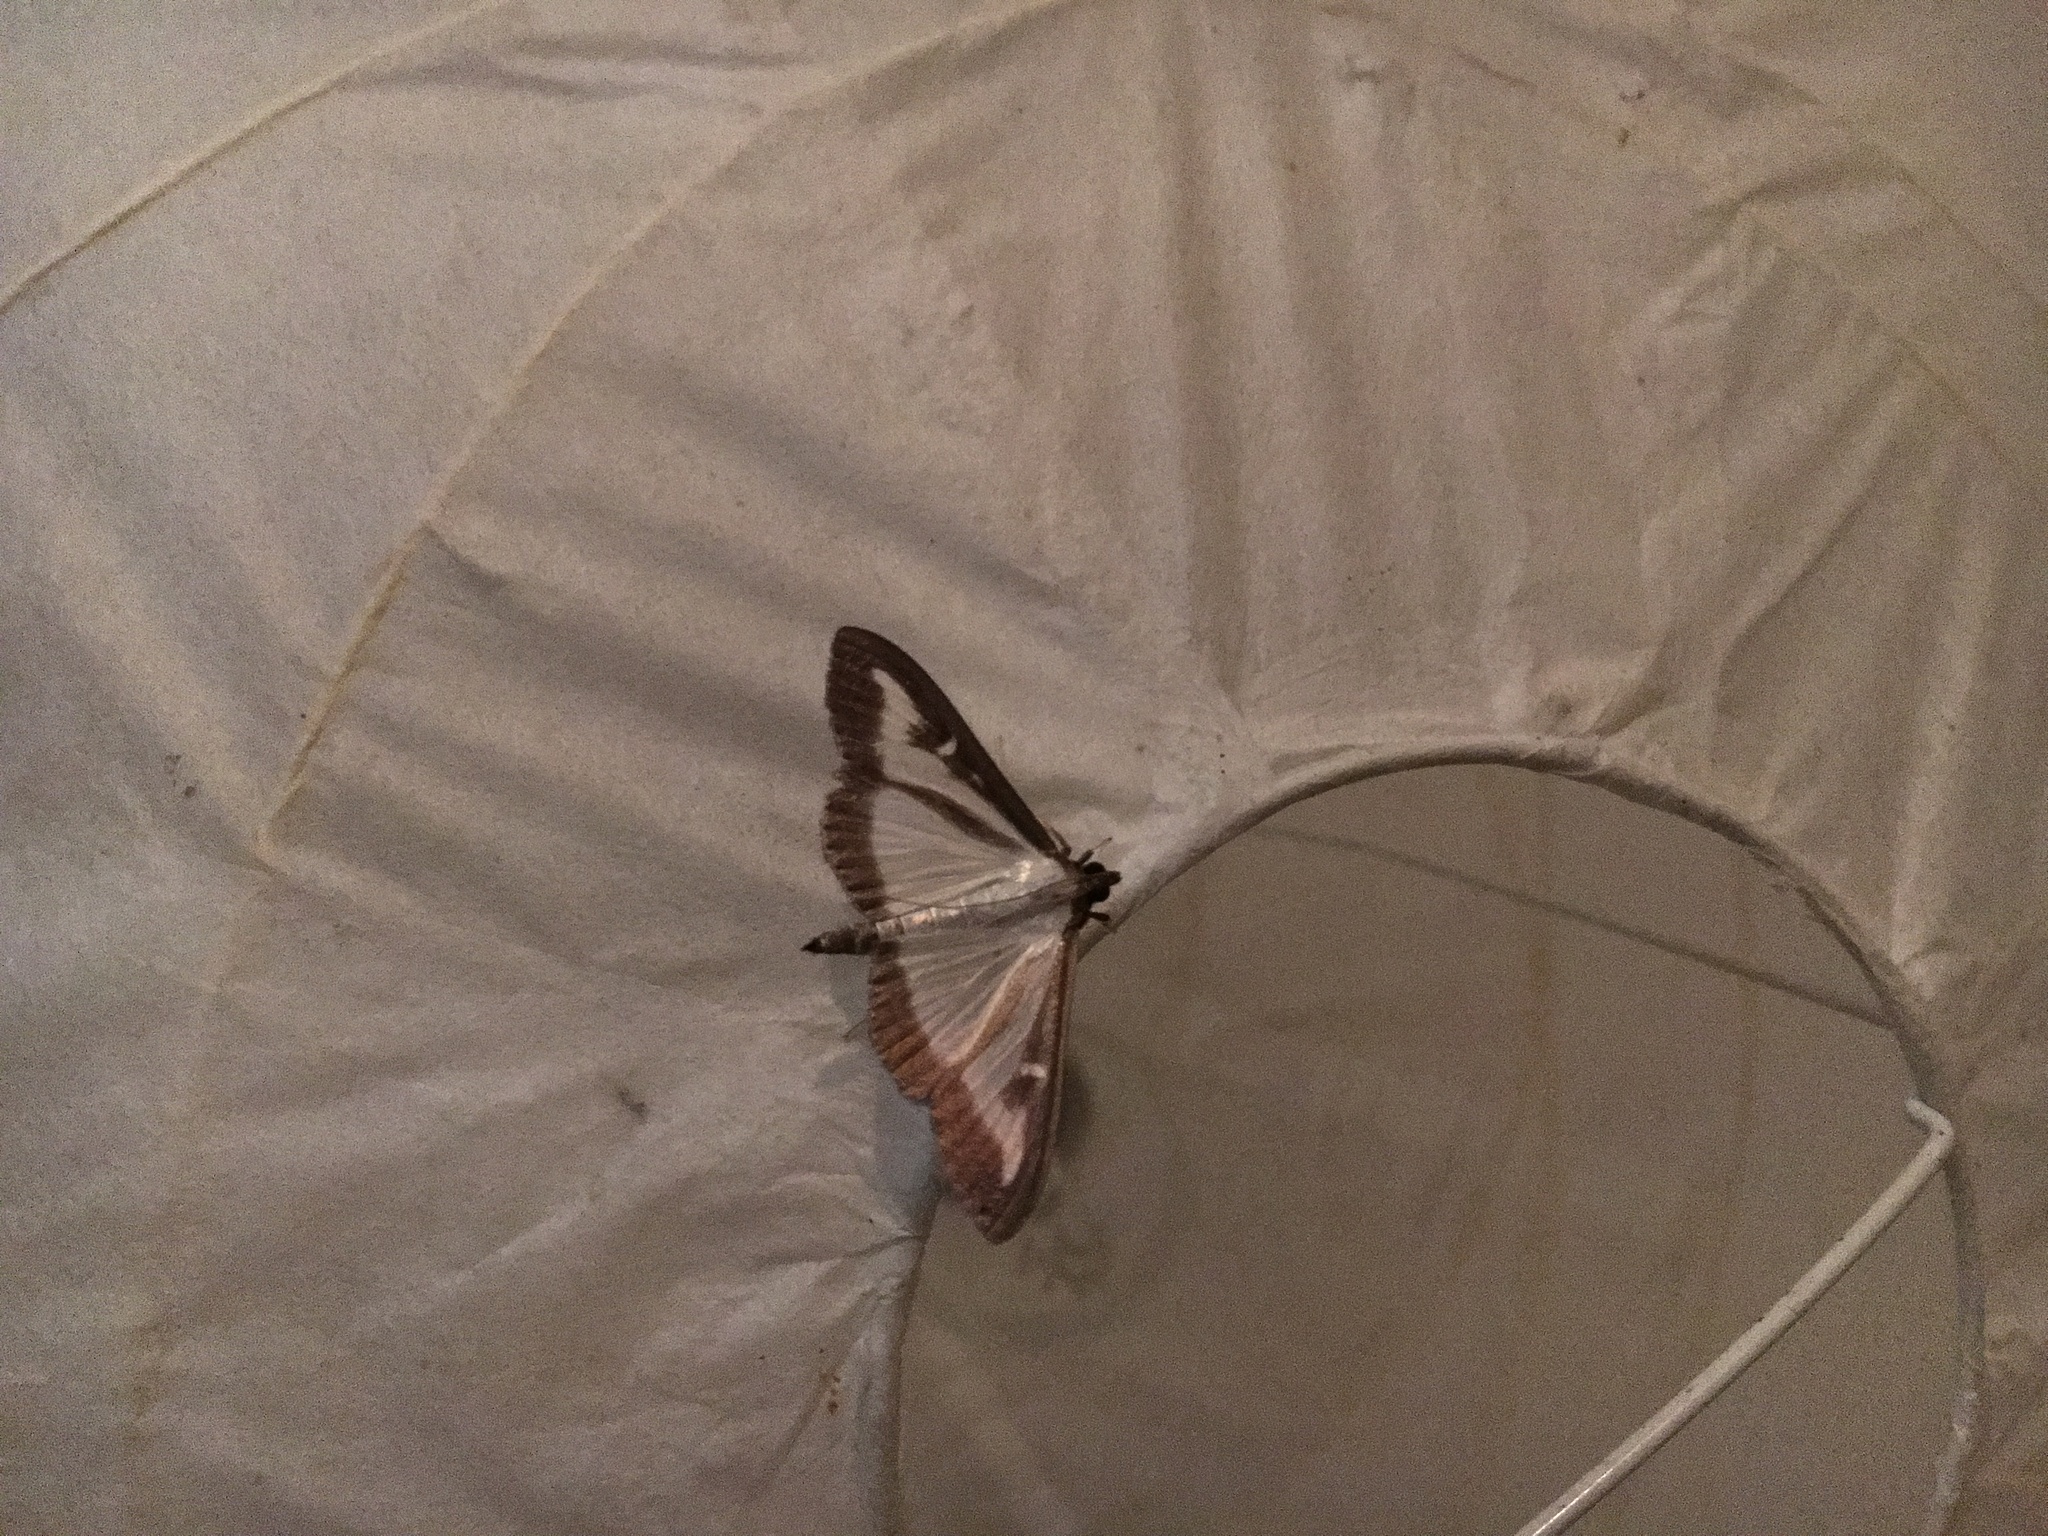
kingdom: Animalia
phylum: Arthropoda
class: Insecta
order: Lepidoptera
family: Crambidae
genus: Cydalima
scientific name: Cydalima perspectalis
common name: Box tree moth
